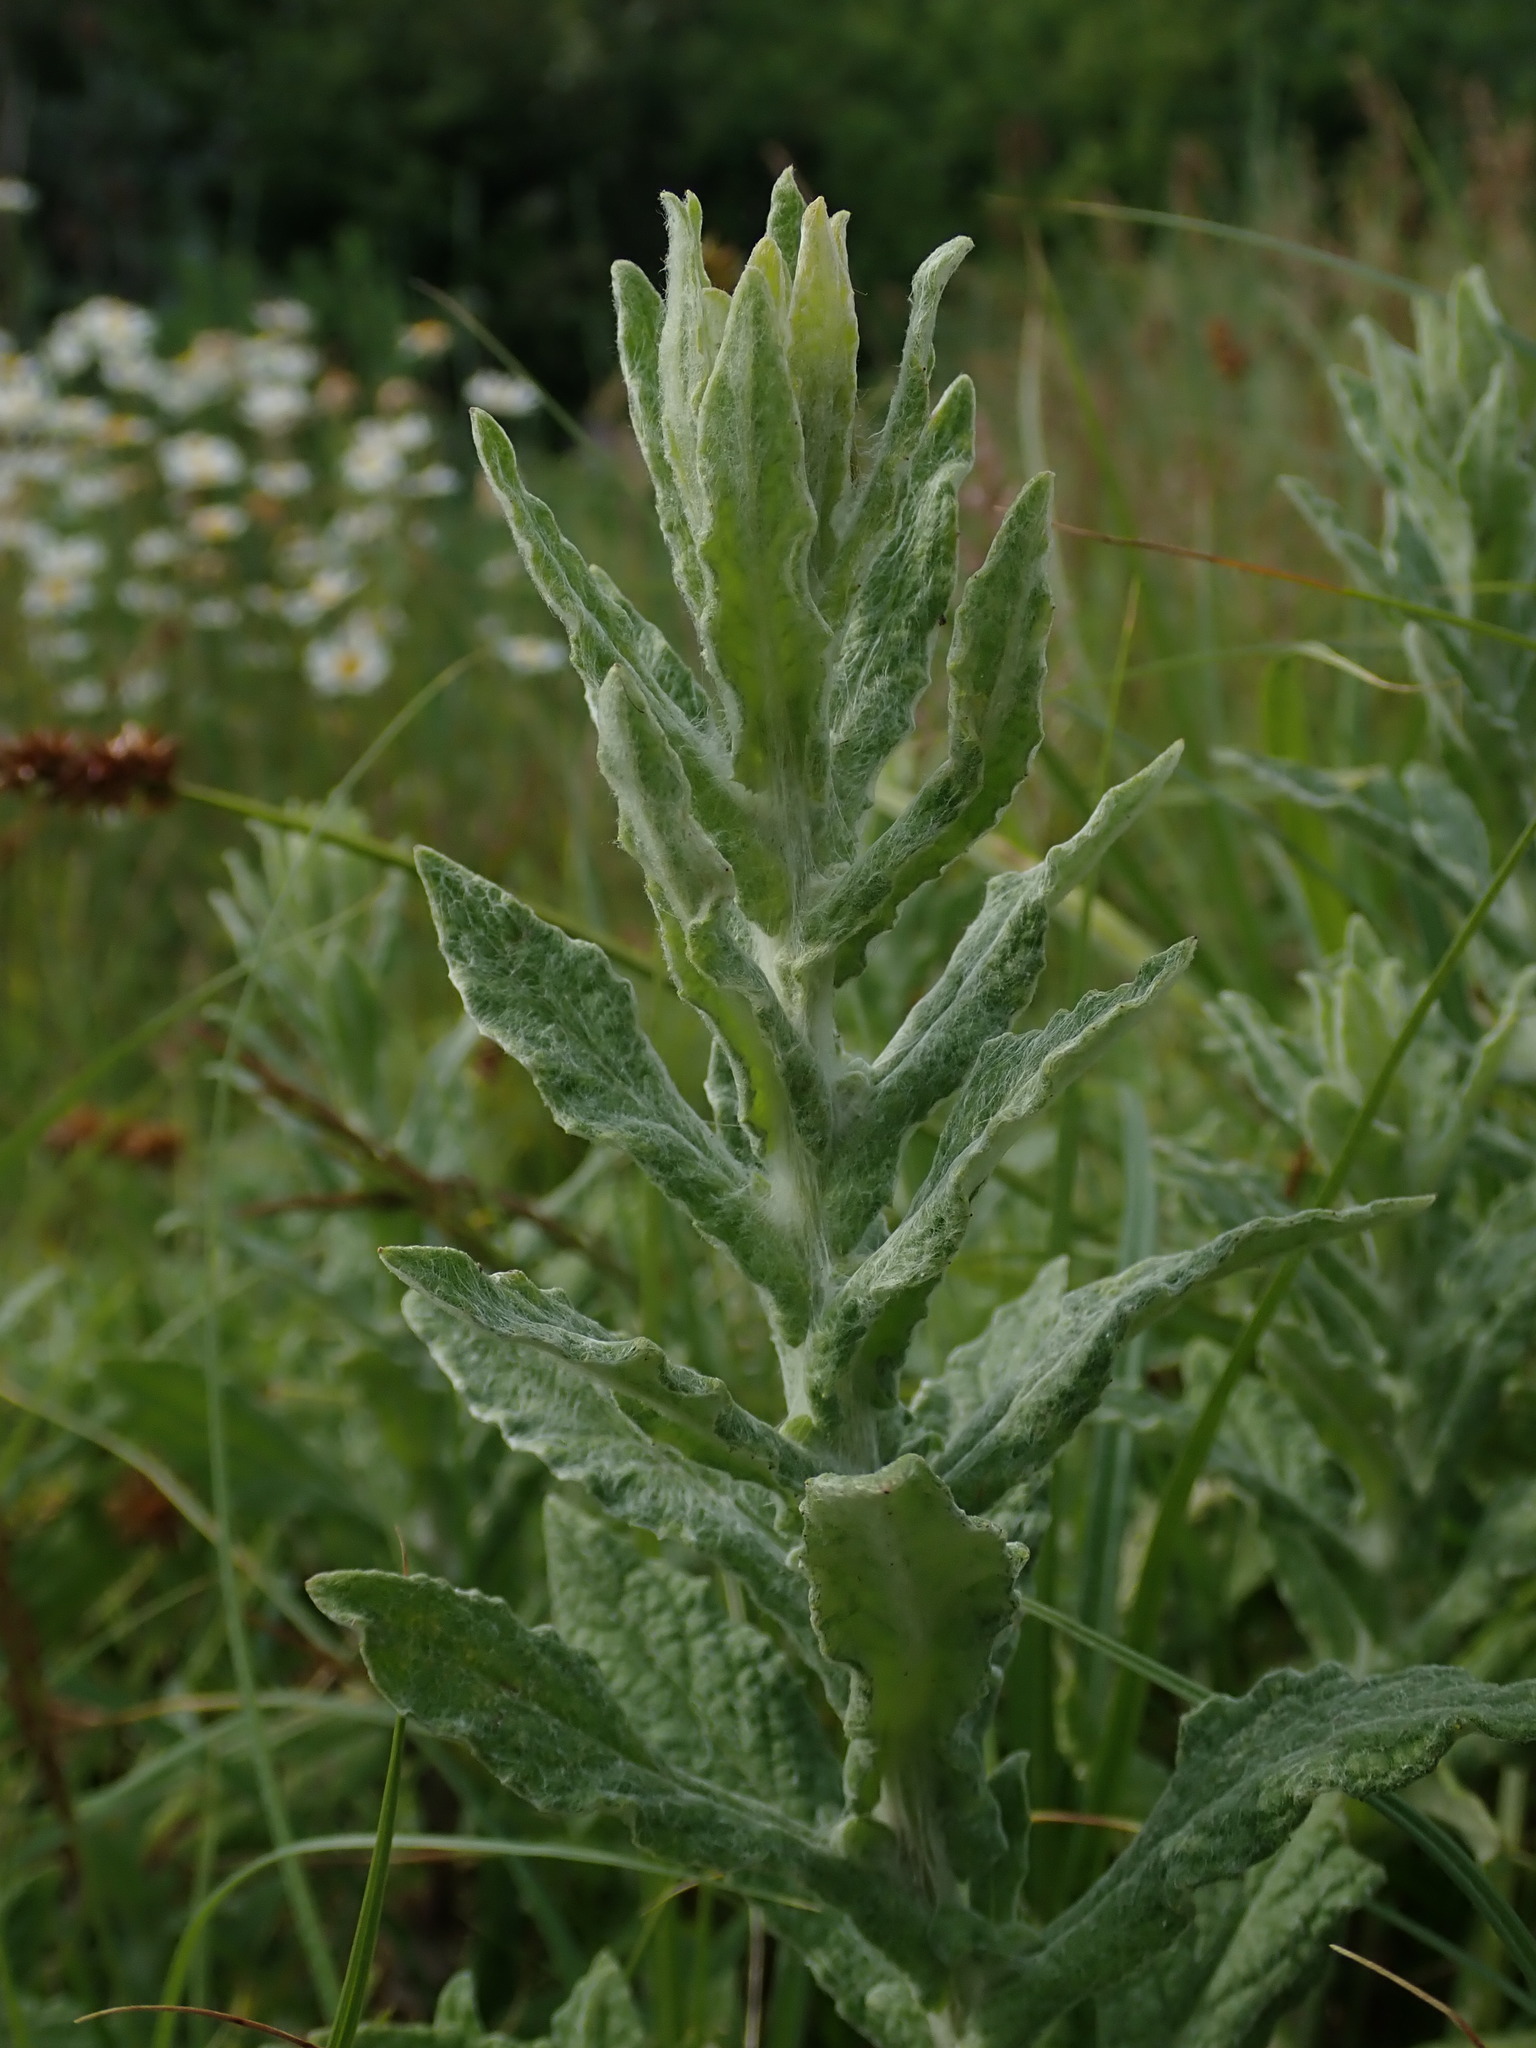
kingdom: Plantae
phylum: Tracheophyta
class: Magnoliopsida
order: Asterales
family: Asteraceae
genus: Pulicaria
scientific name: Pulicaria dysenterica
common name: Common fleabane
